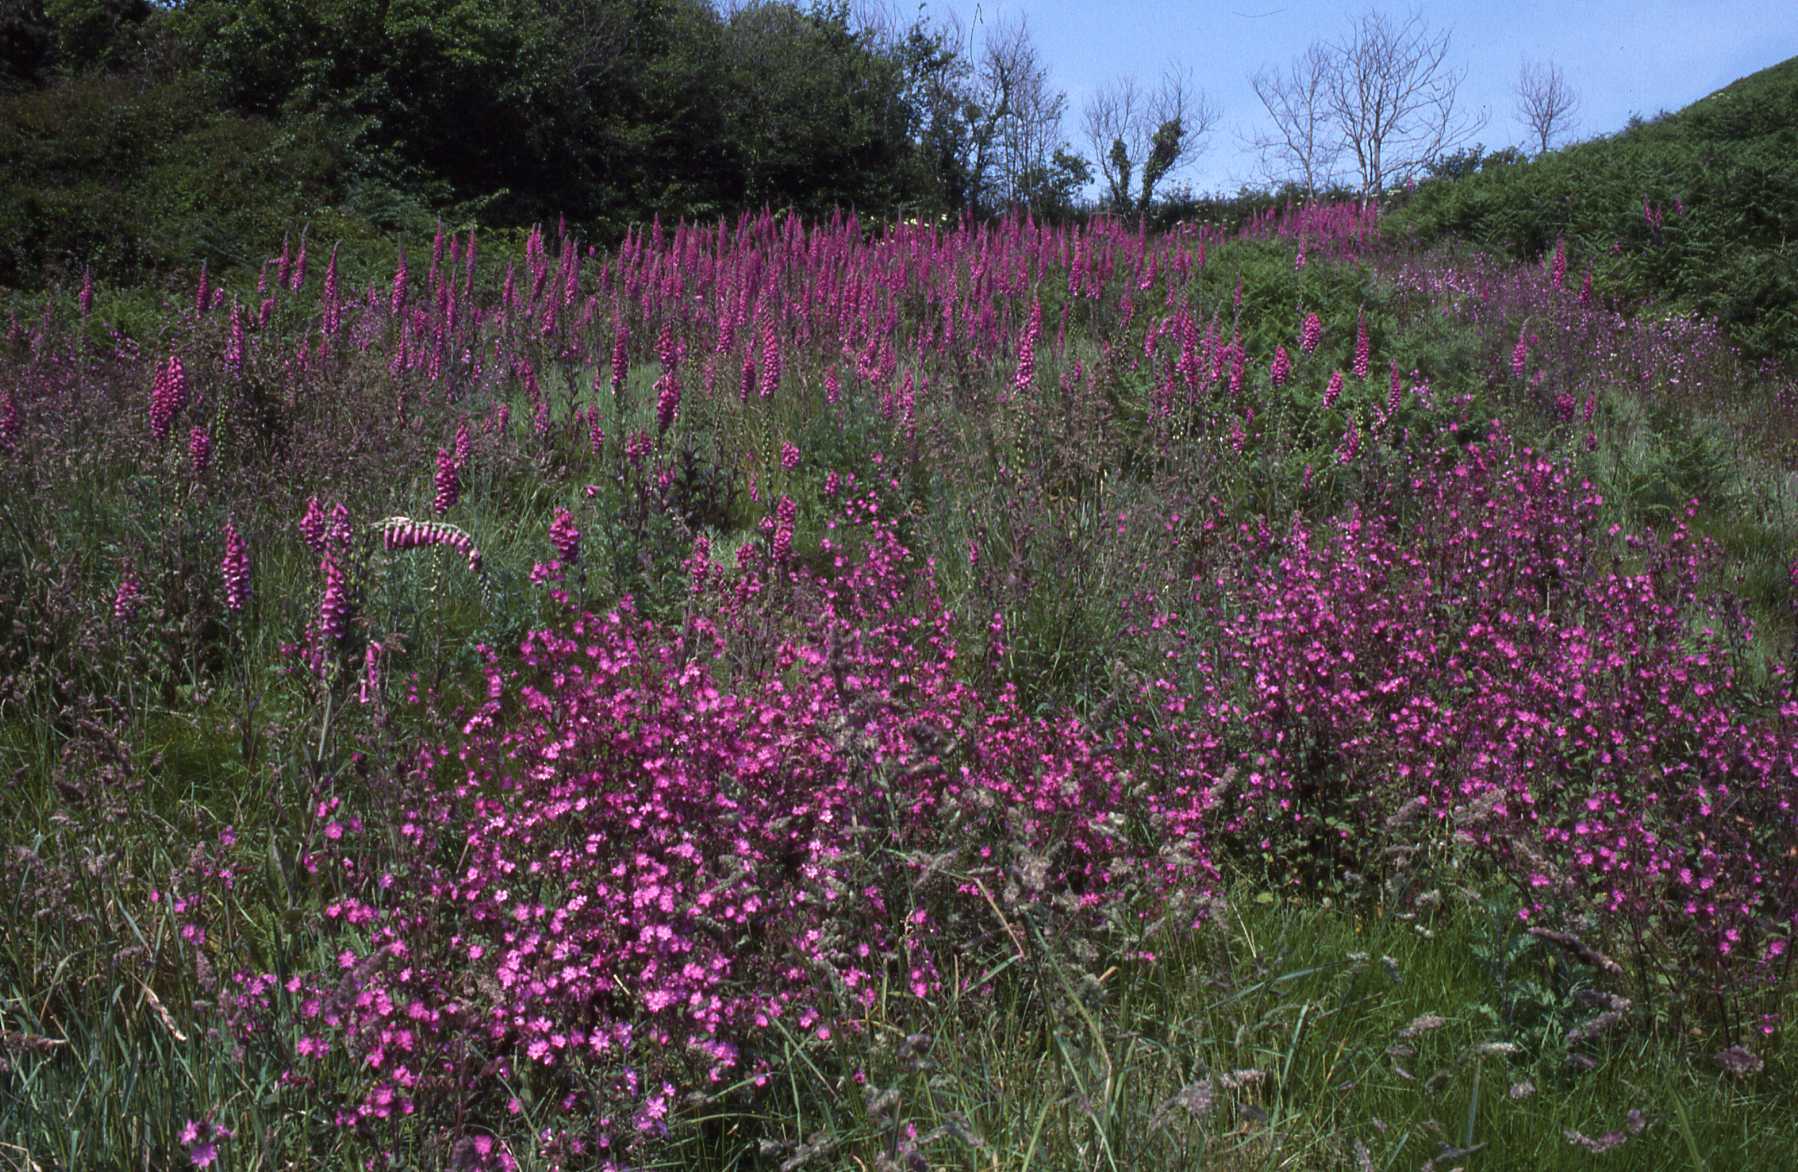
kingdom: Plantae
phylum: Tracheophyta
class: Magnoliopsida
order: Caryophyllales
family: Caryophyllaceae
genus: Silene
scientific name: Silene dioica
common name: Red campion
